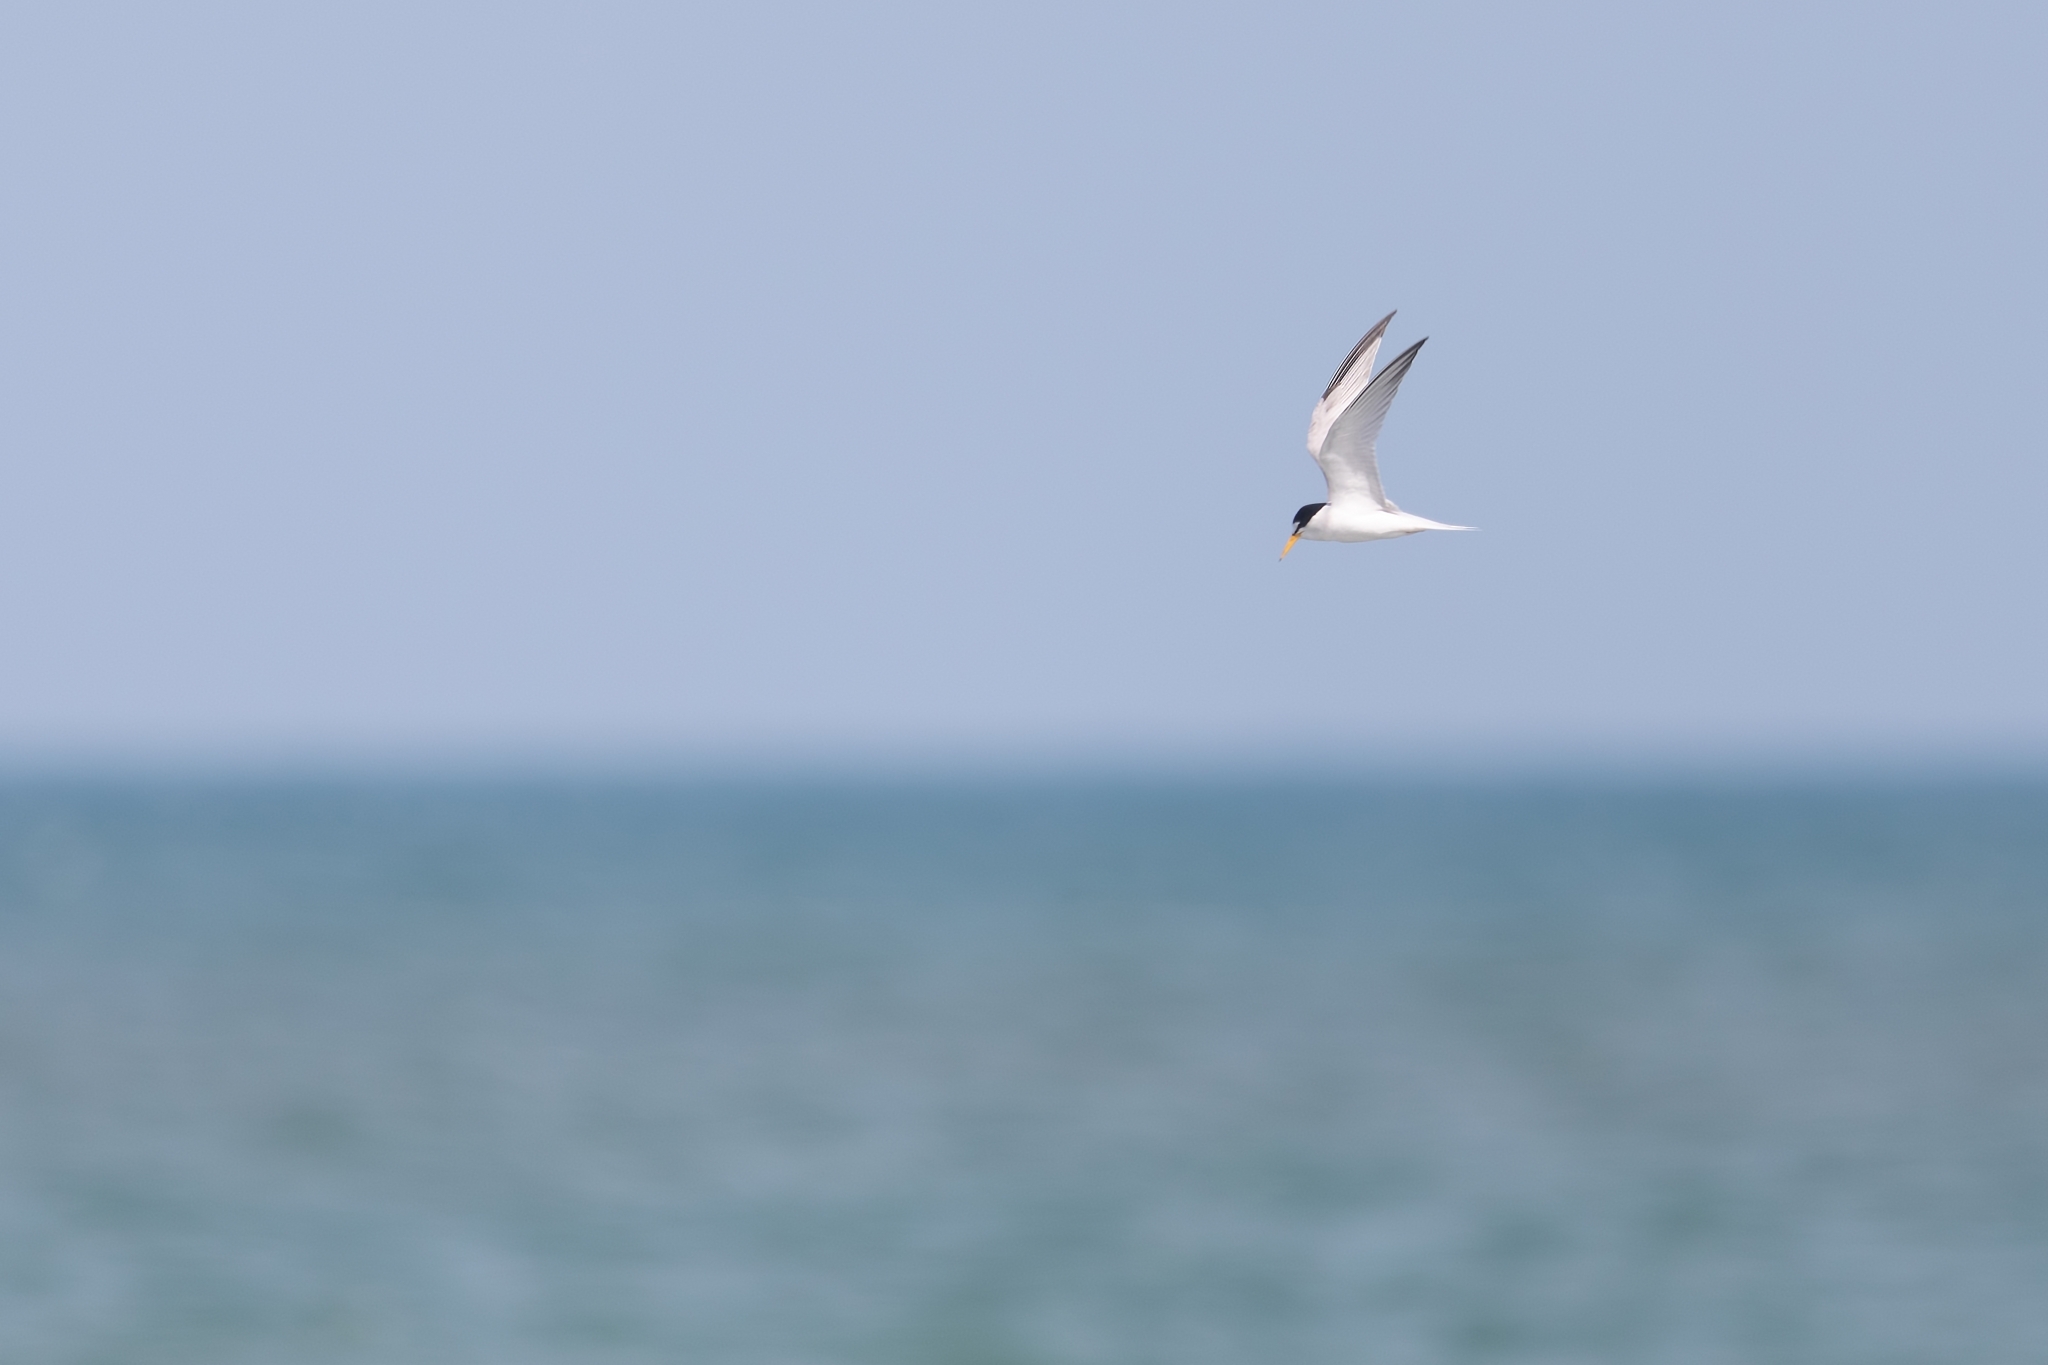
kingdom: Animalia
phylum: Chordata
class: Aves
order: Charadriiformes
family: Laridae
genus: Sternula
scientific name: Sternula antillarum
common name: Least tern
